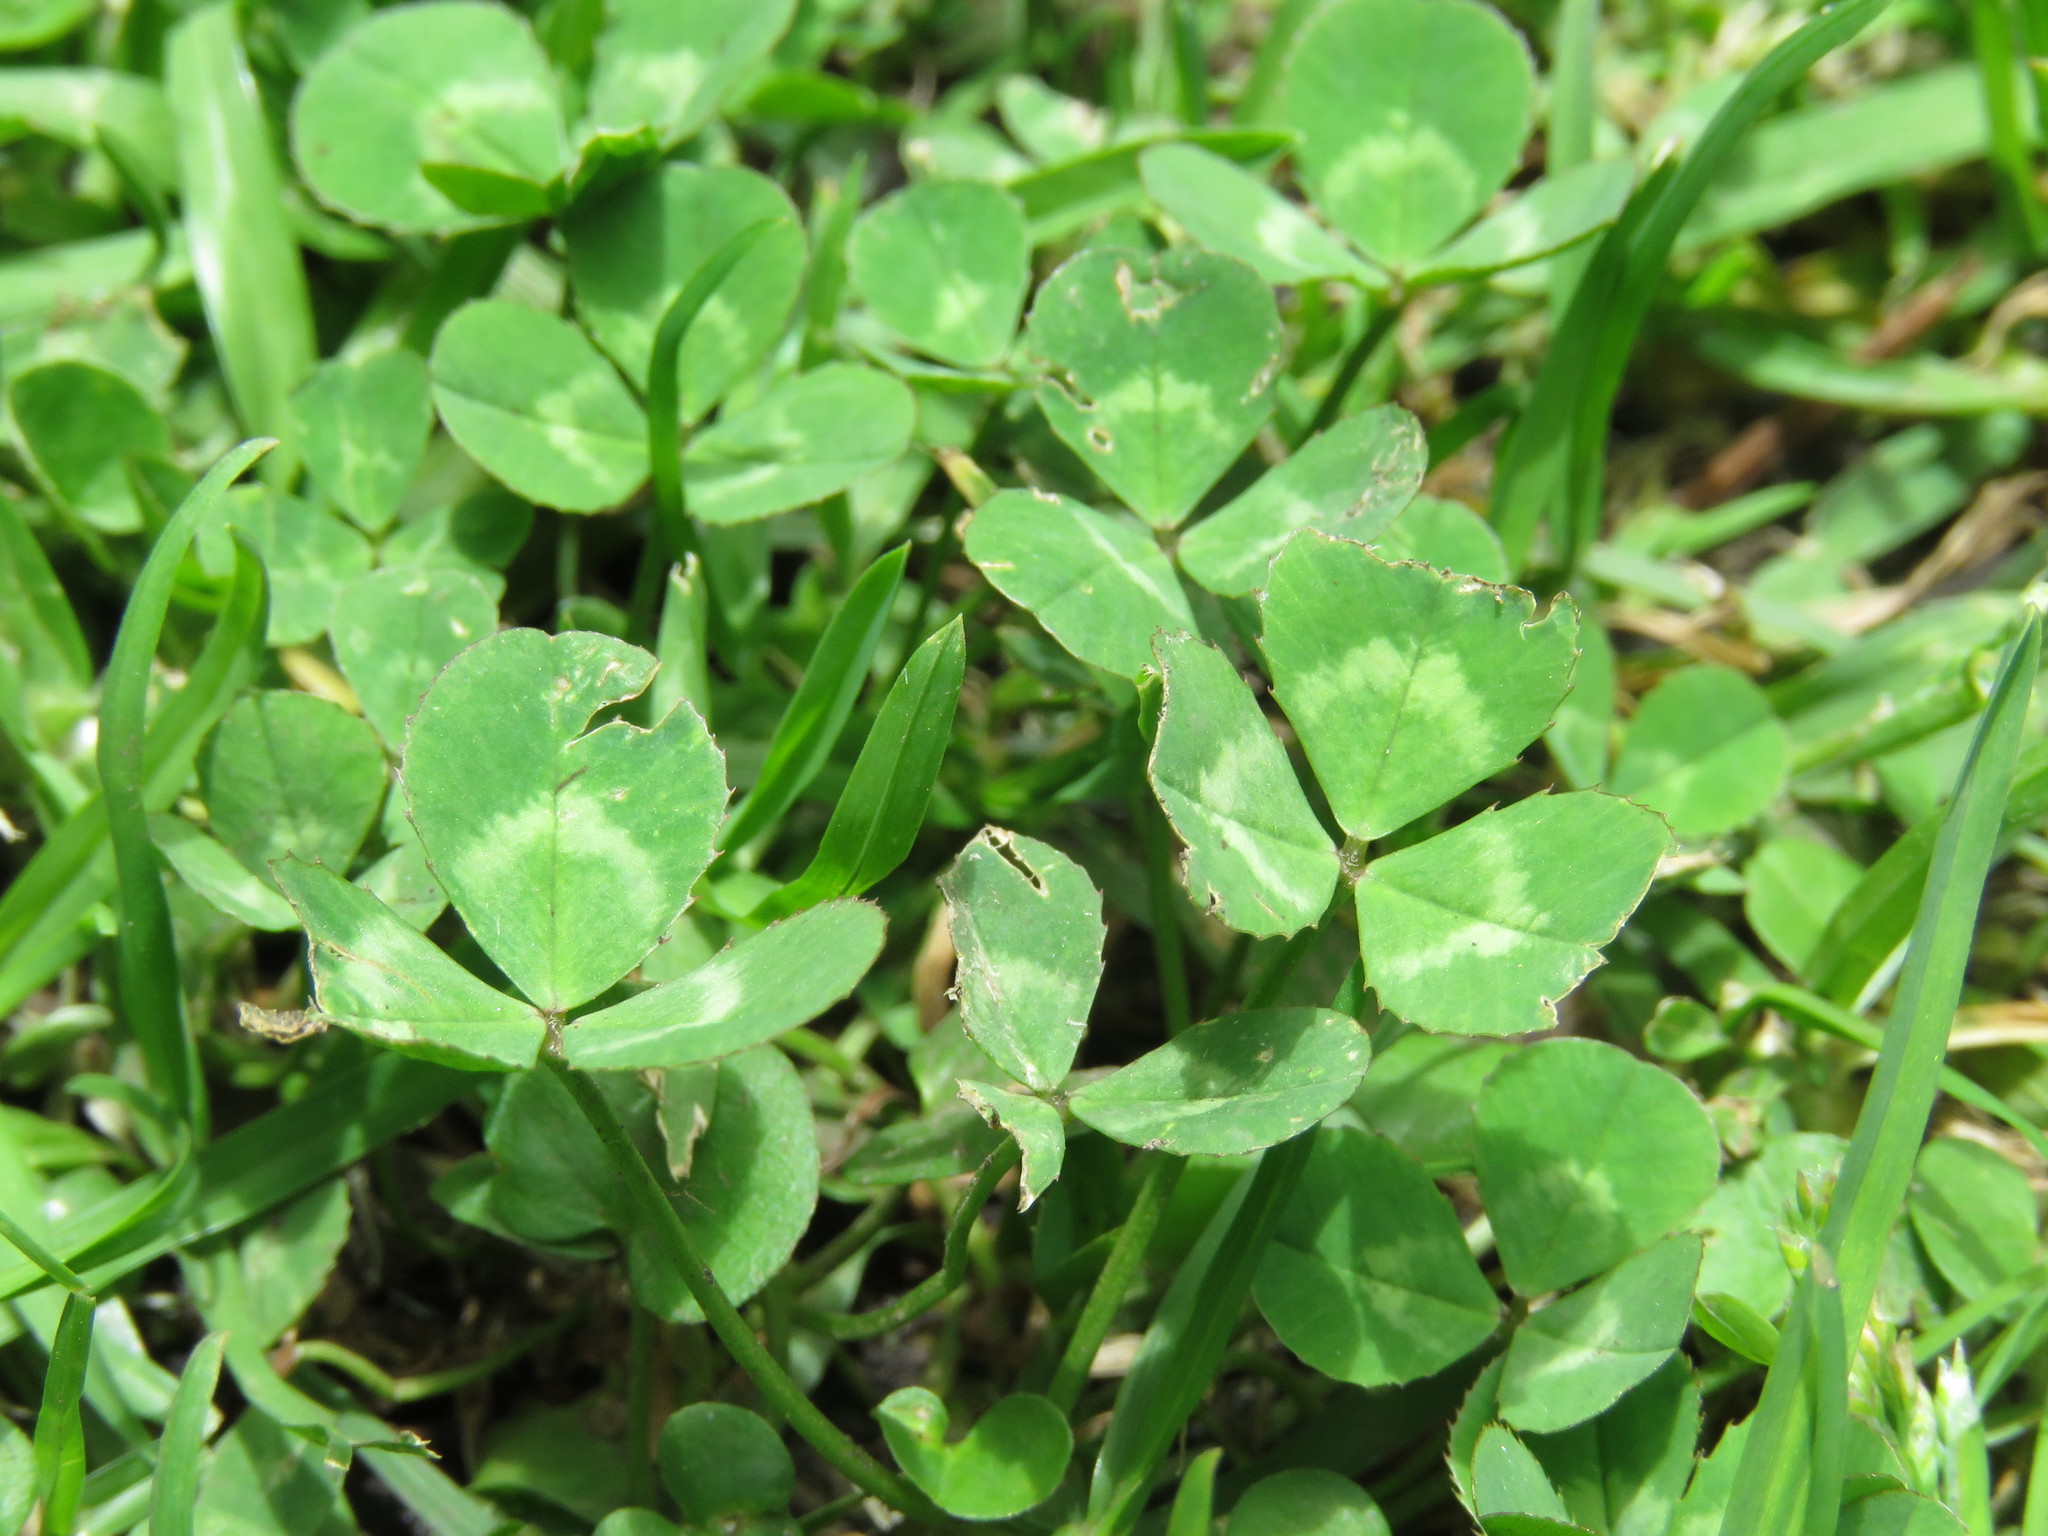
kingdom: Plantae
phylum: Tracheophyta
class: Magnoliopsida
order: Fabales
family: Fabaceae
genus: Trifolium
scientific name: Trifolium repens
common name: White clover
